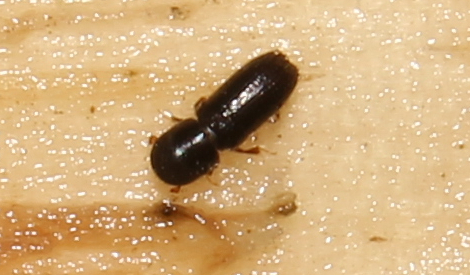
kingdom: Animalia
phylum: Arthropoda
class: Insecta
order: Coleoptera
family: Curculionidae
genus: Xyleborinus
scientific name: Xyleborinus
